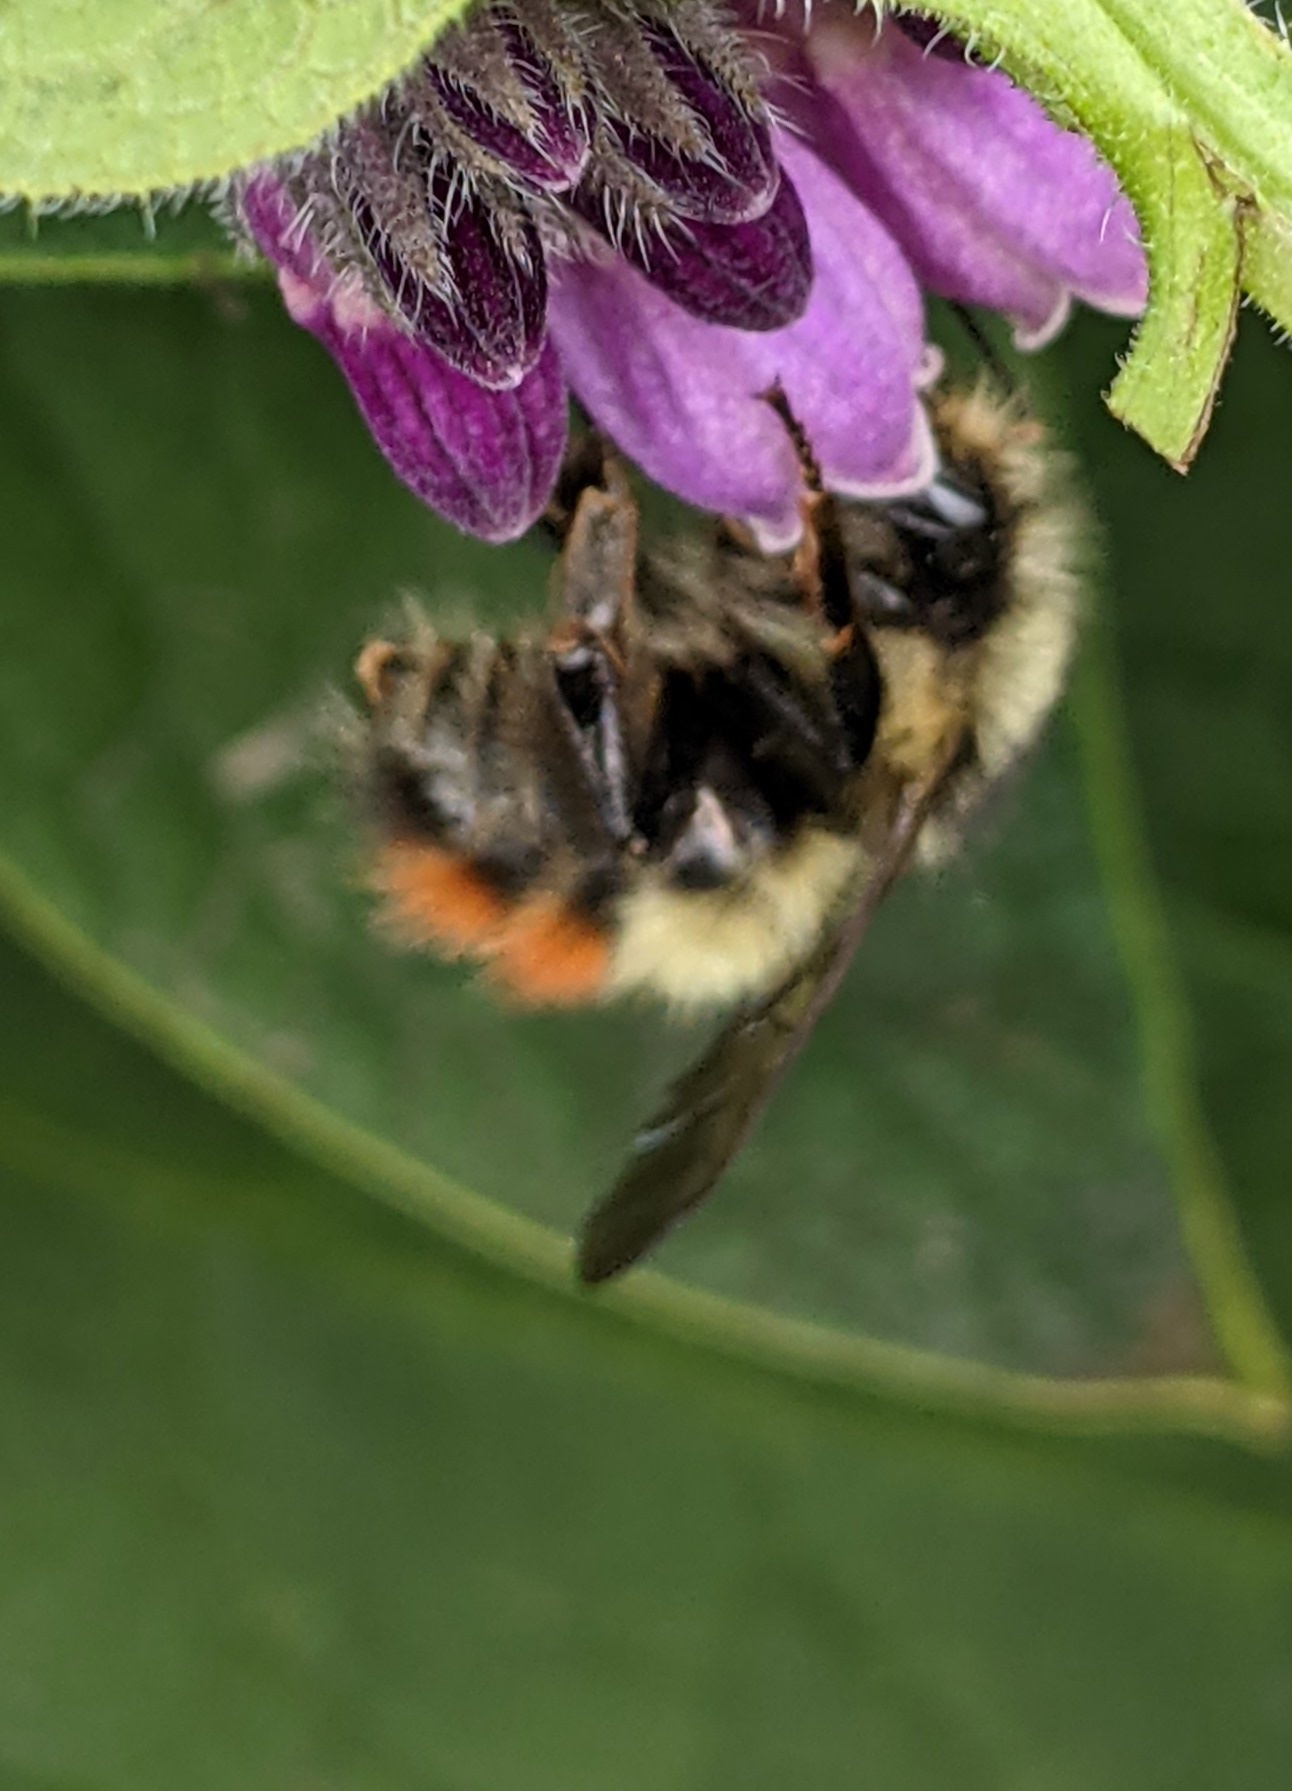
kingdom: Animalia
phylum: Arthropoda
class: Insecta
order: Hymenoptera
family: Apidae
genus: Bombus
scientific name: Bombus flavifrons
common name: Yellow head bumble bee
